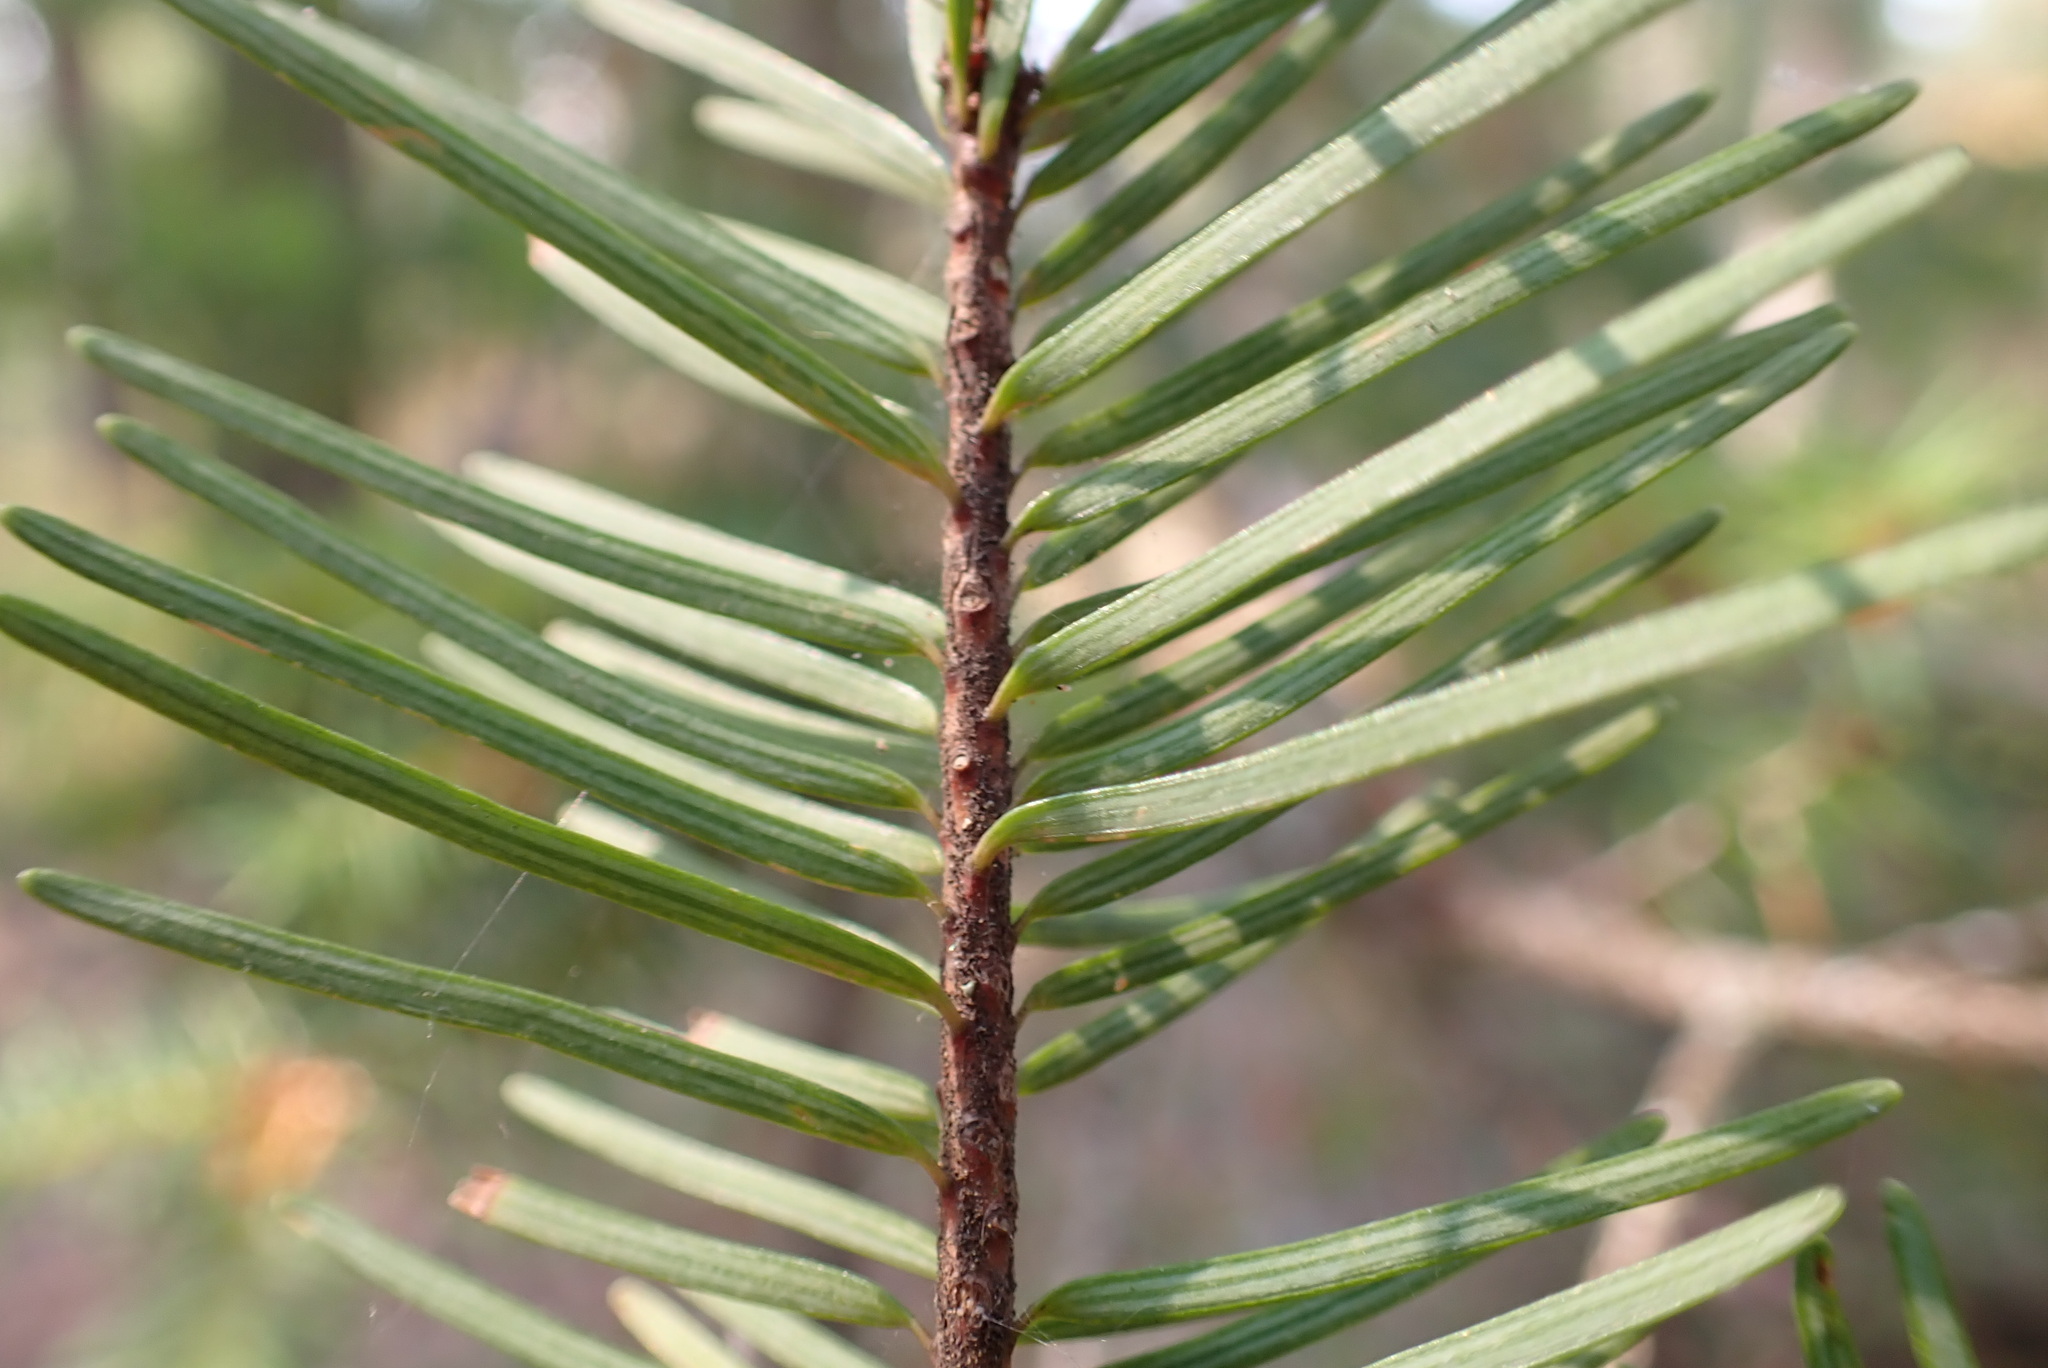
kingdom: Plantae
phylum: Tracheophyta
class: Pinopsida
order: Pinales
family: Pinaceae
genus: Pseudotsuga
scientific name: Pseudotsuga menziesii
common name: Douglas fir
